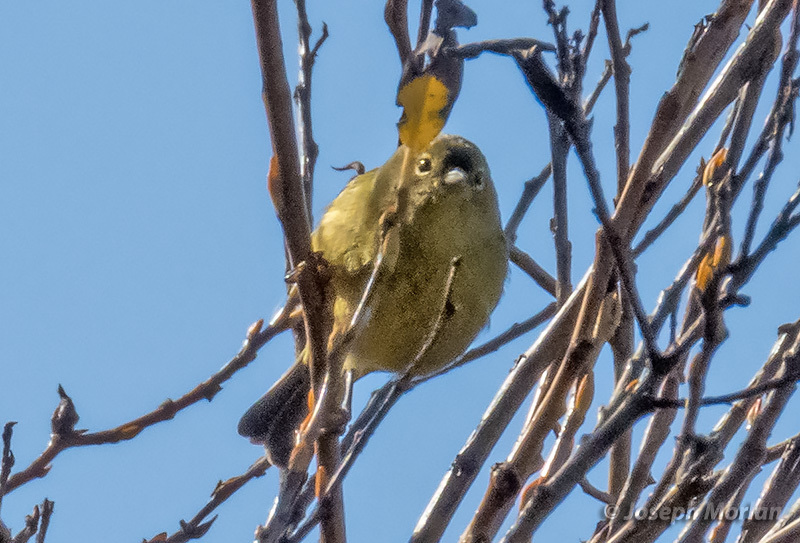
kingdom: Animalia
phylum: Chordata
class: Aves
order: Passeriformes
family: Parulidae
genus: Leiothlypis
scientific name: Leiothlypis celata
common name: Orange-crowned warbler
